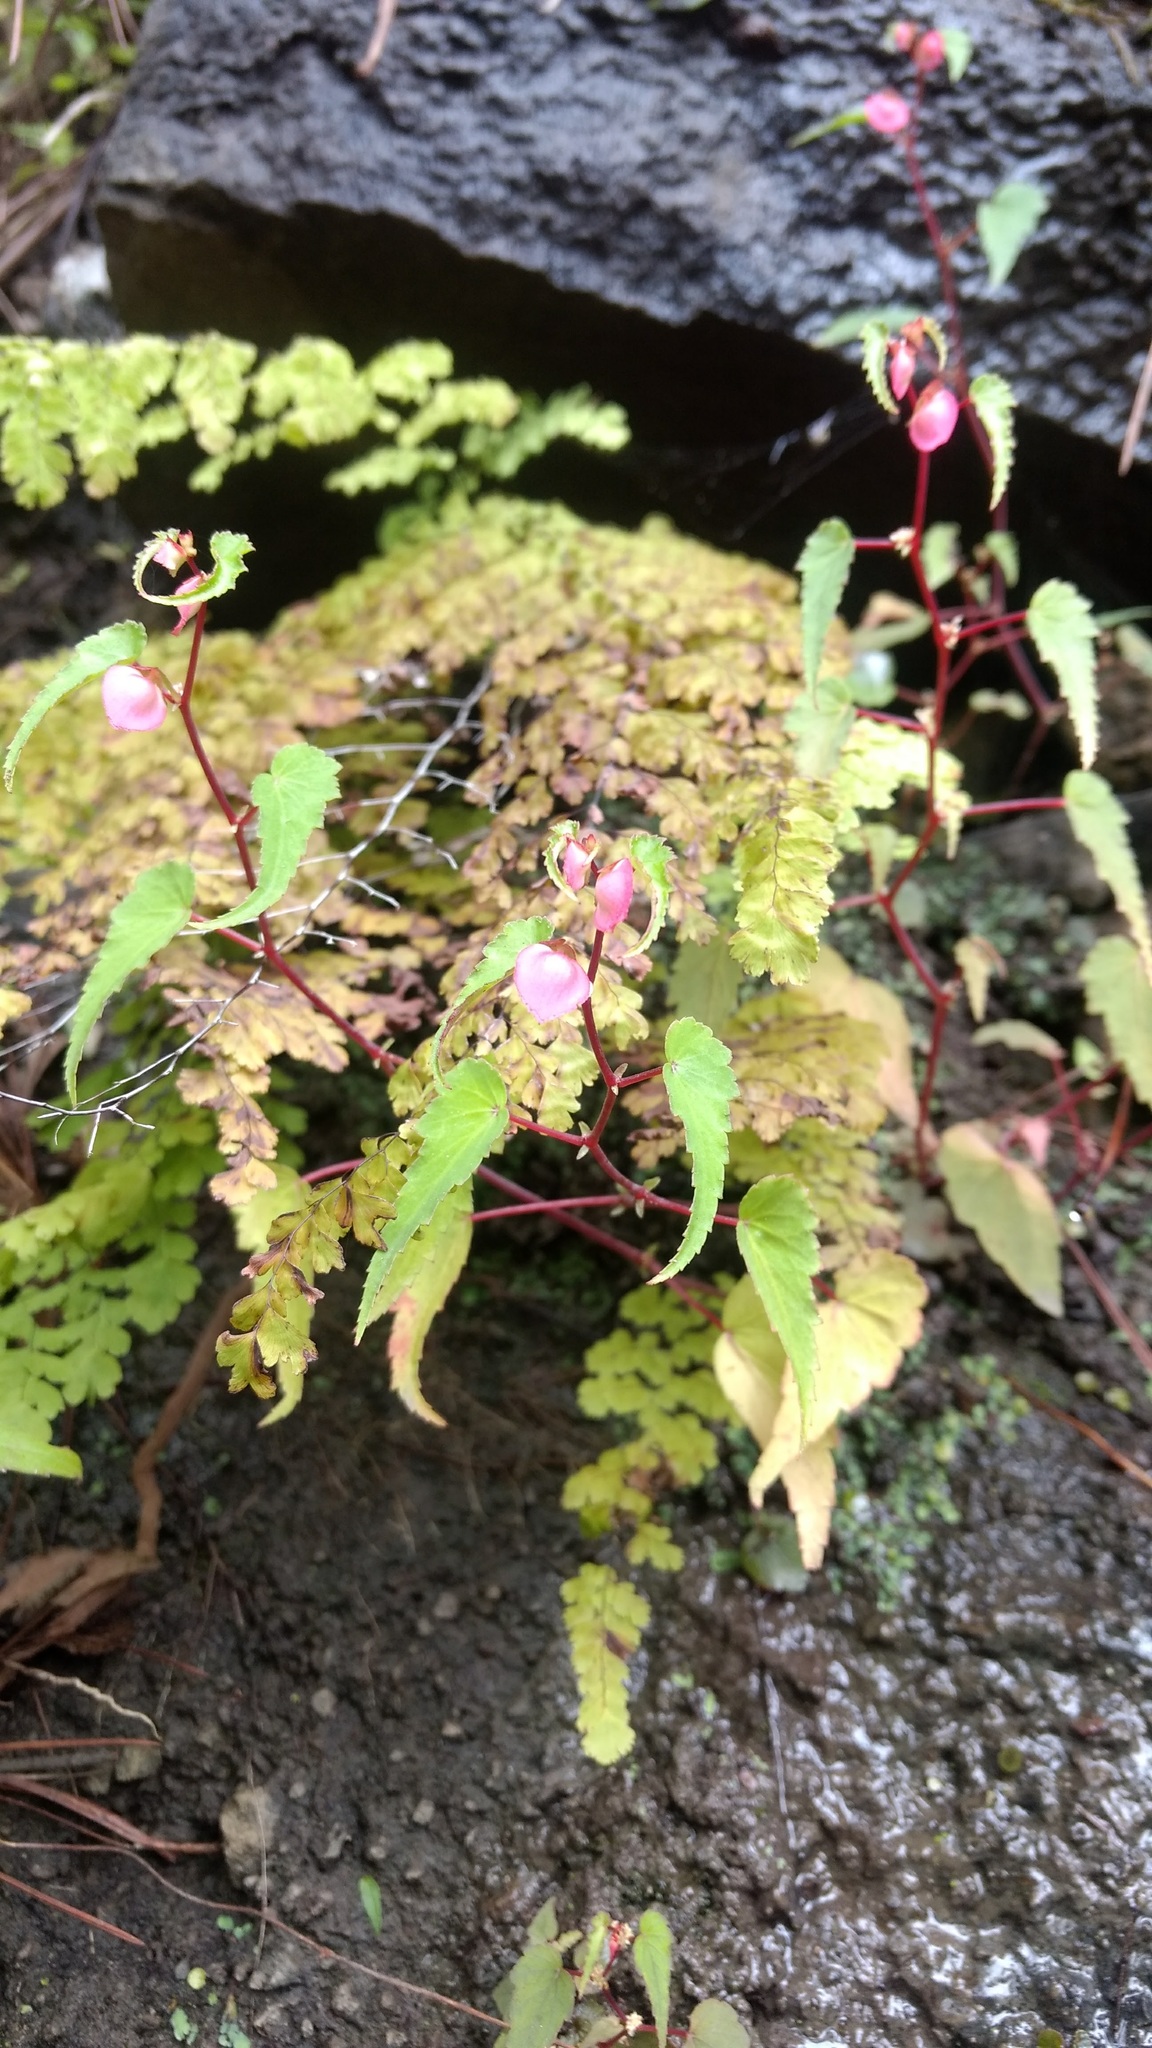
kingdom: Plantae
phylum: Tracheophyta
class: Magnoliopsida
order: Cucurbitales
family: Begoniaceae
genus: Begonia
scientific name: Begonia gracilis
